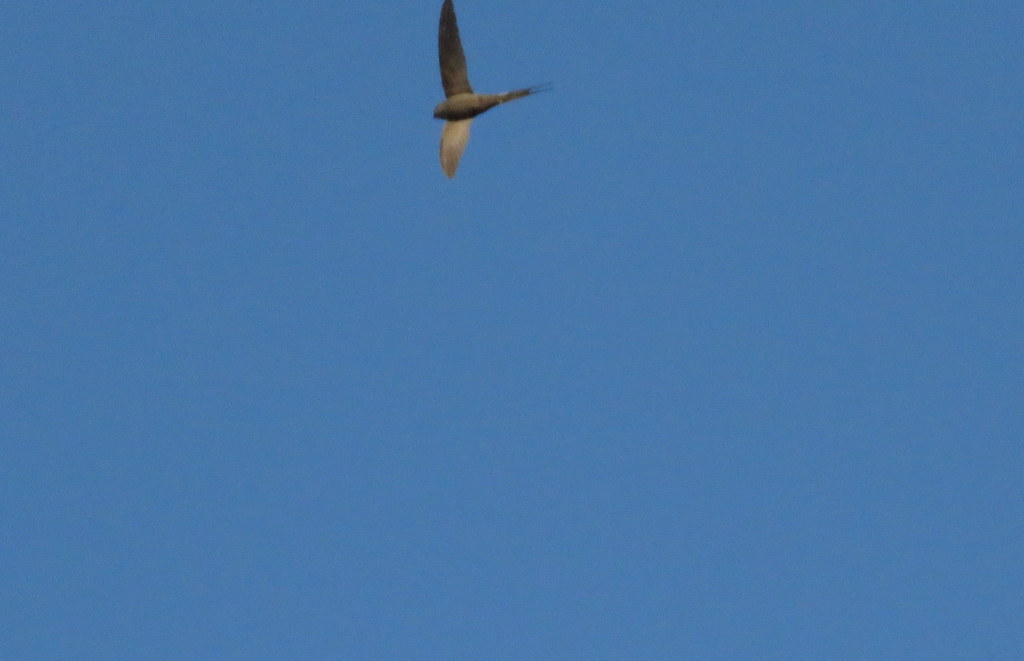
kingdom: Animalia
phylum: Chordata
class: Aves
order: Apodiformes
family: Apodidae
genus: Cypsiurus
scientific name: Cypsiurus parvus
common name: African palm swift
